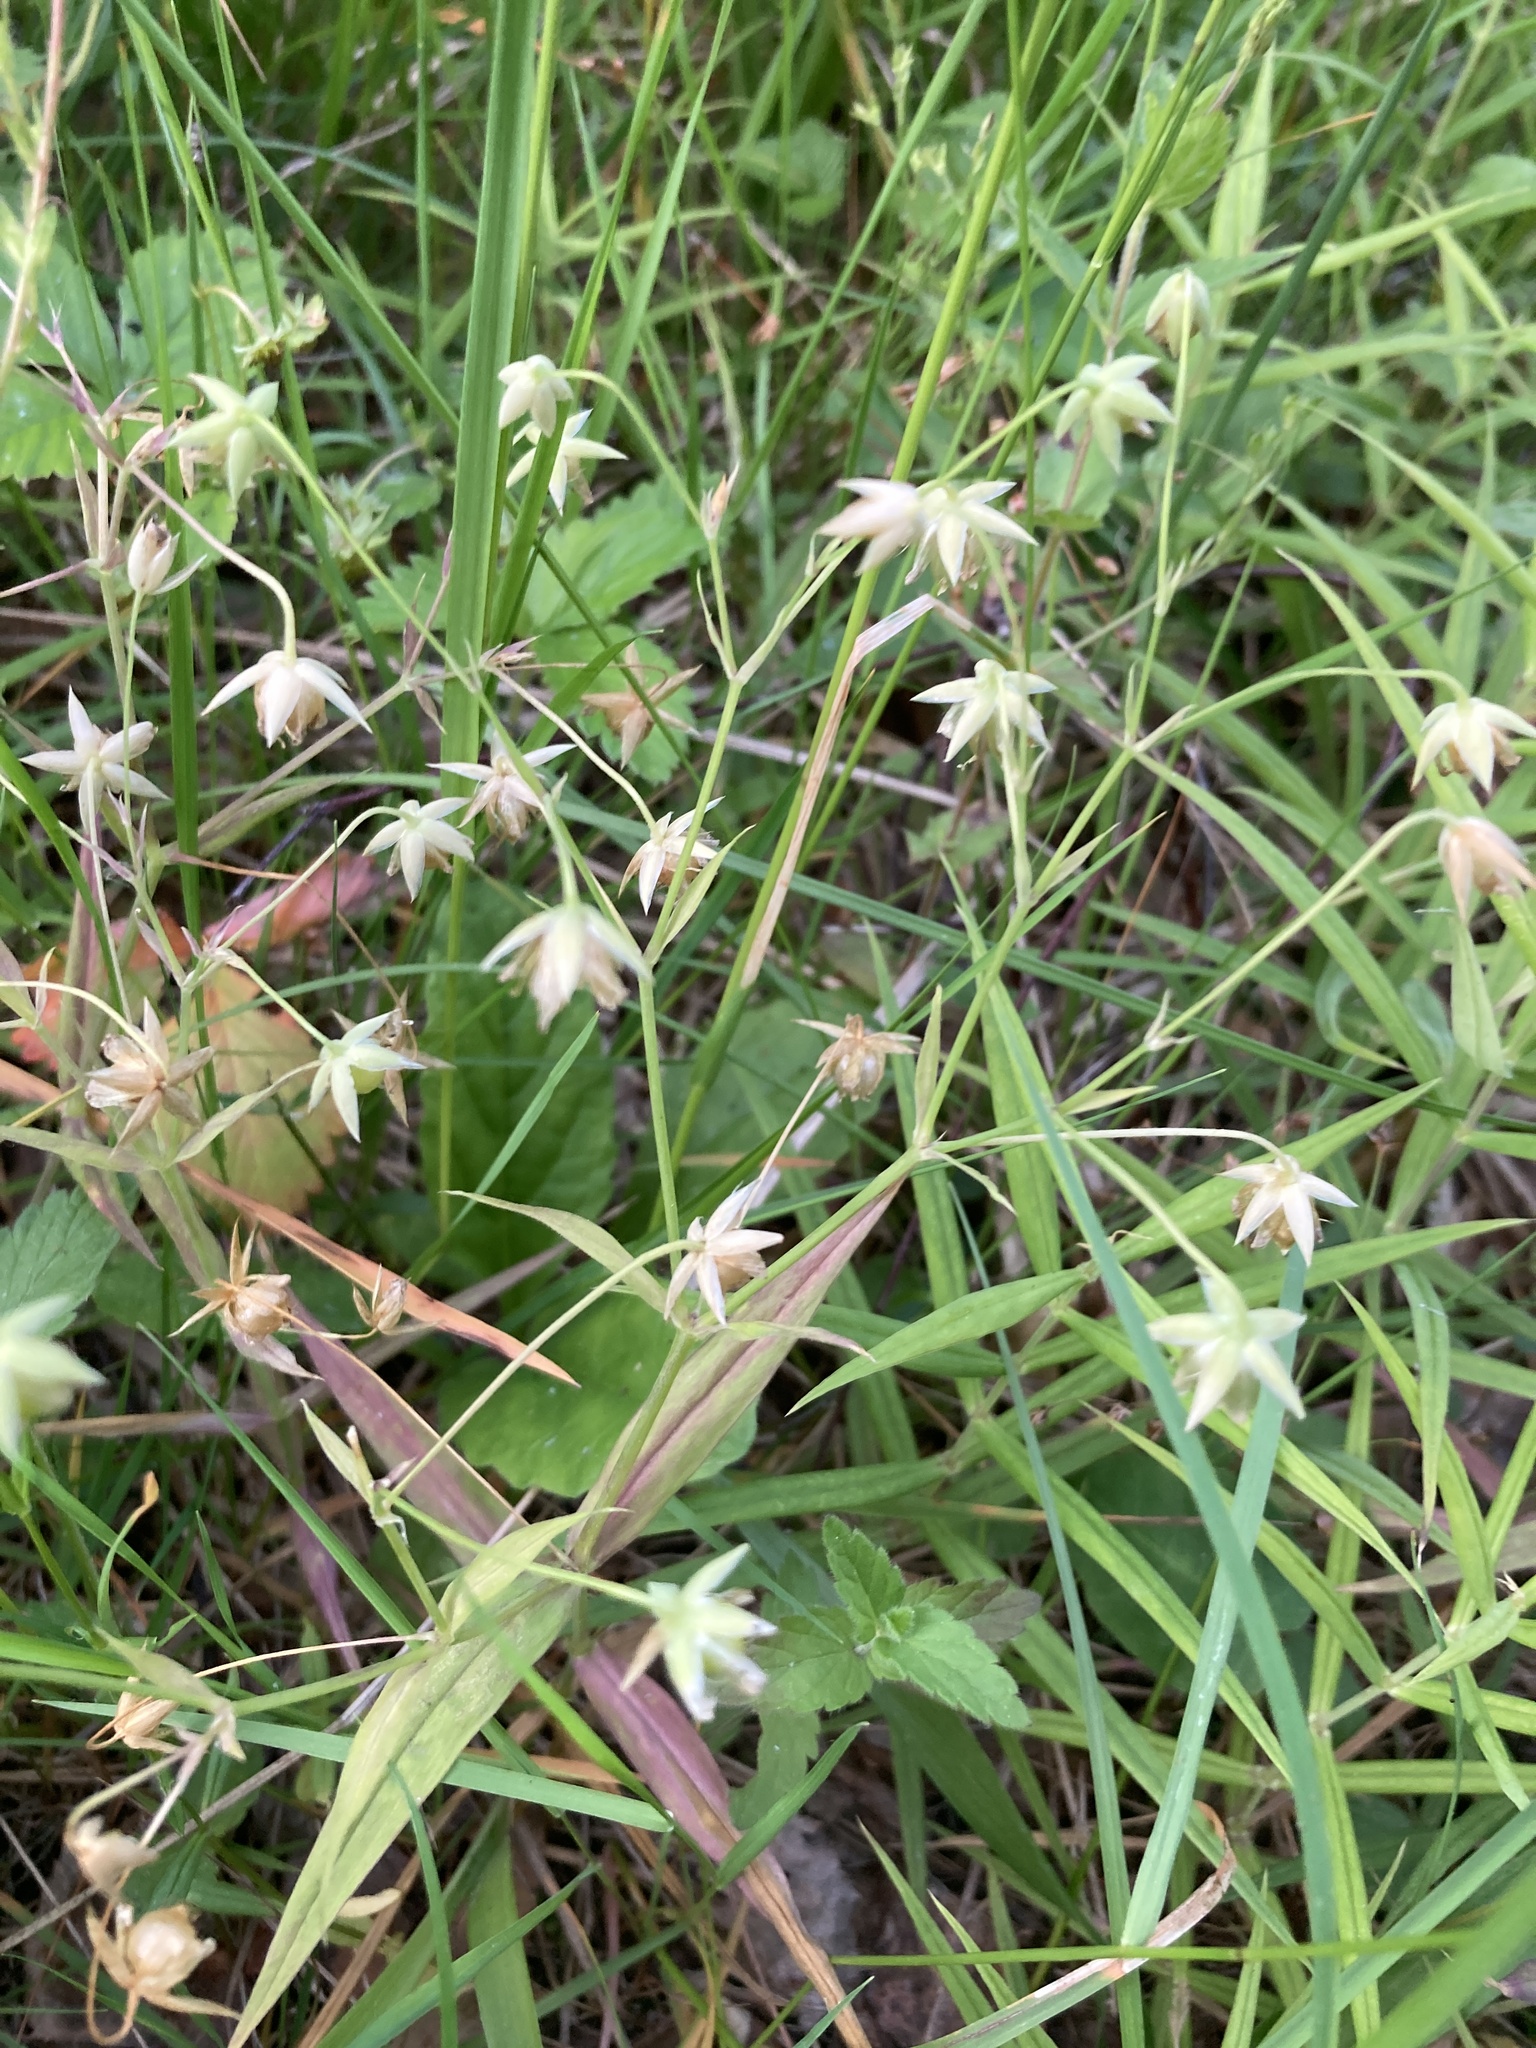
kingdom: Plantae
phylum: Tracheophyta
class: Magnoliopsida
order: Caryophyllales
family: Caryophyllaceae
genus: Rabelera
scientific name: Rabelera holostea
